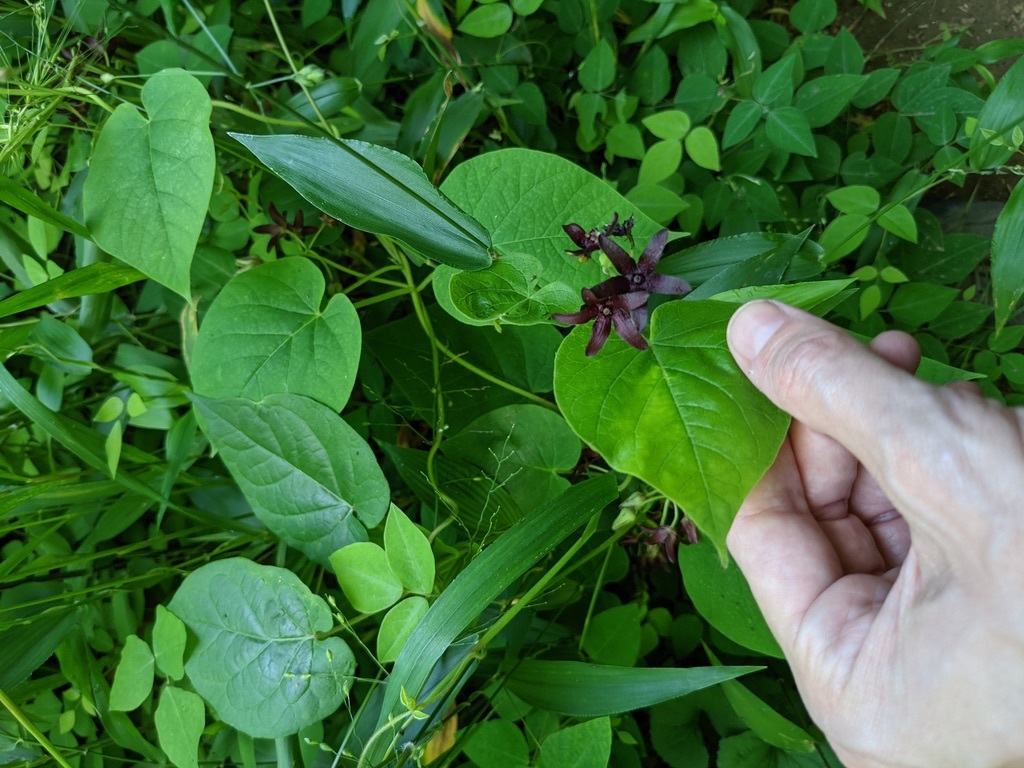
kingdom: Plantae
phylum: Tracheophyta
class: Magnoliopsida
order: Gentianales
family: Apocynaceae
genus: Matelea
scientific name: Matelea carolinensis
